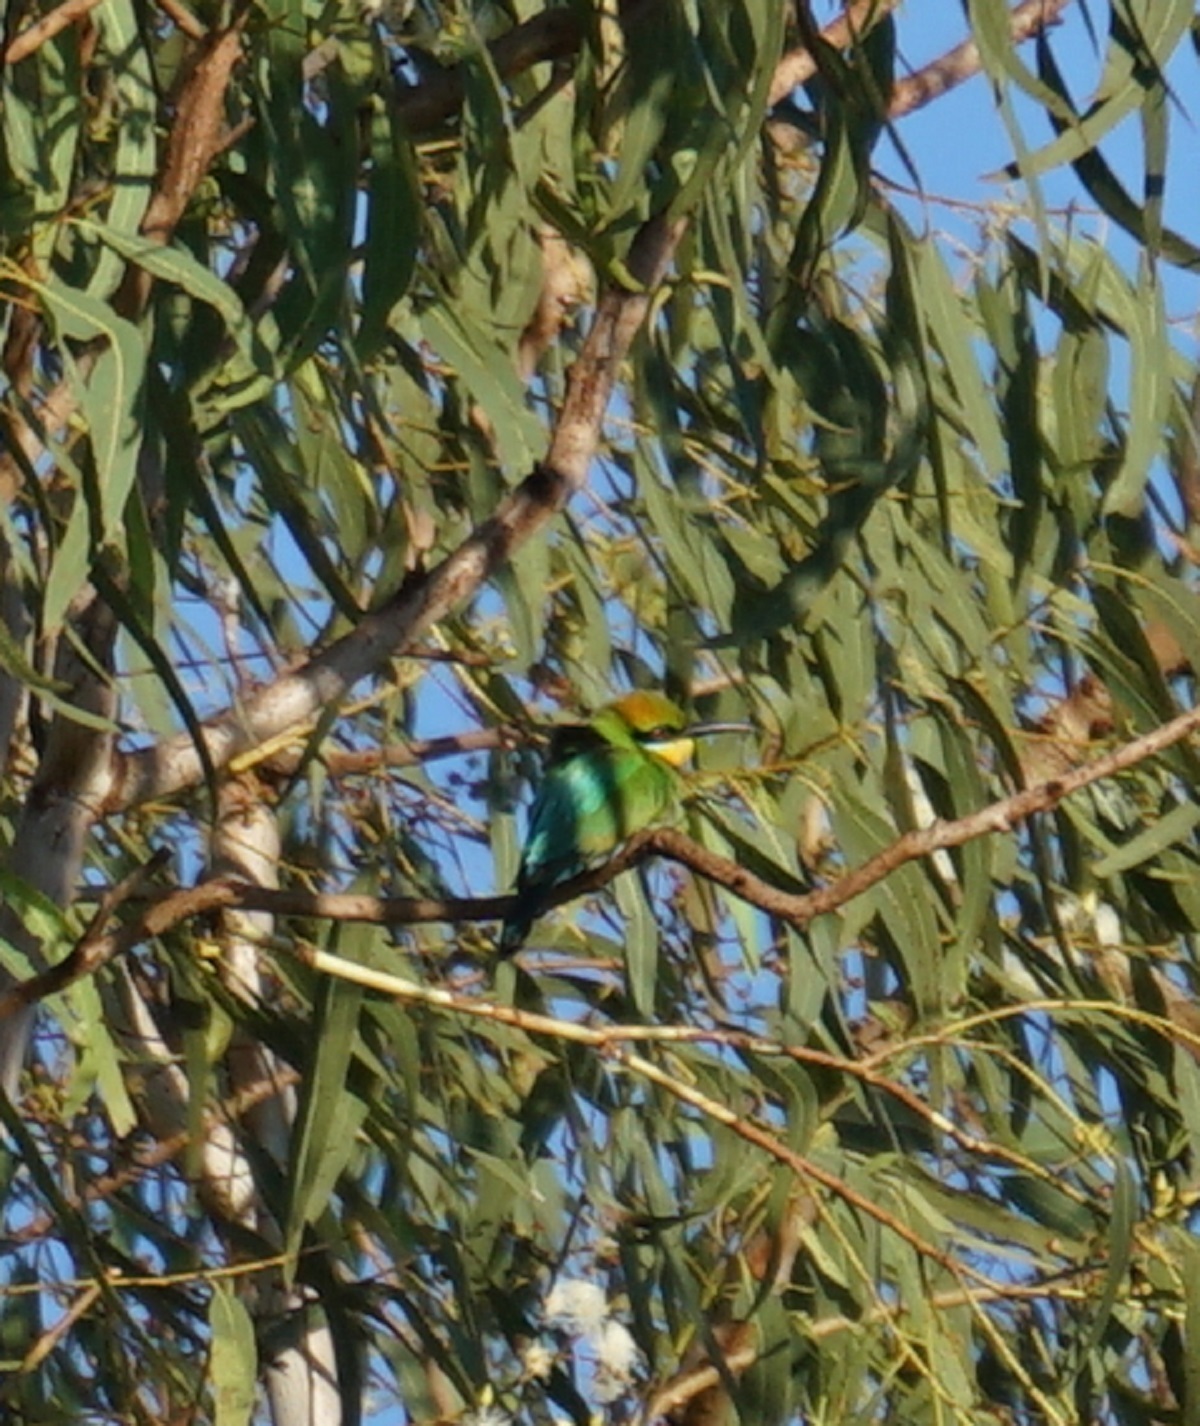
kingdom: Animalia
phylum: Chordata
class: Aves
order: Coraciiformes
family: Meropidae
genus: Merops
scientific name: Merops ornatus
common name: Rainbow bee-eater
